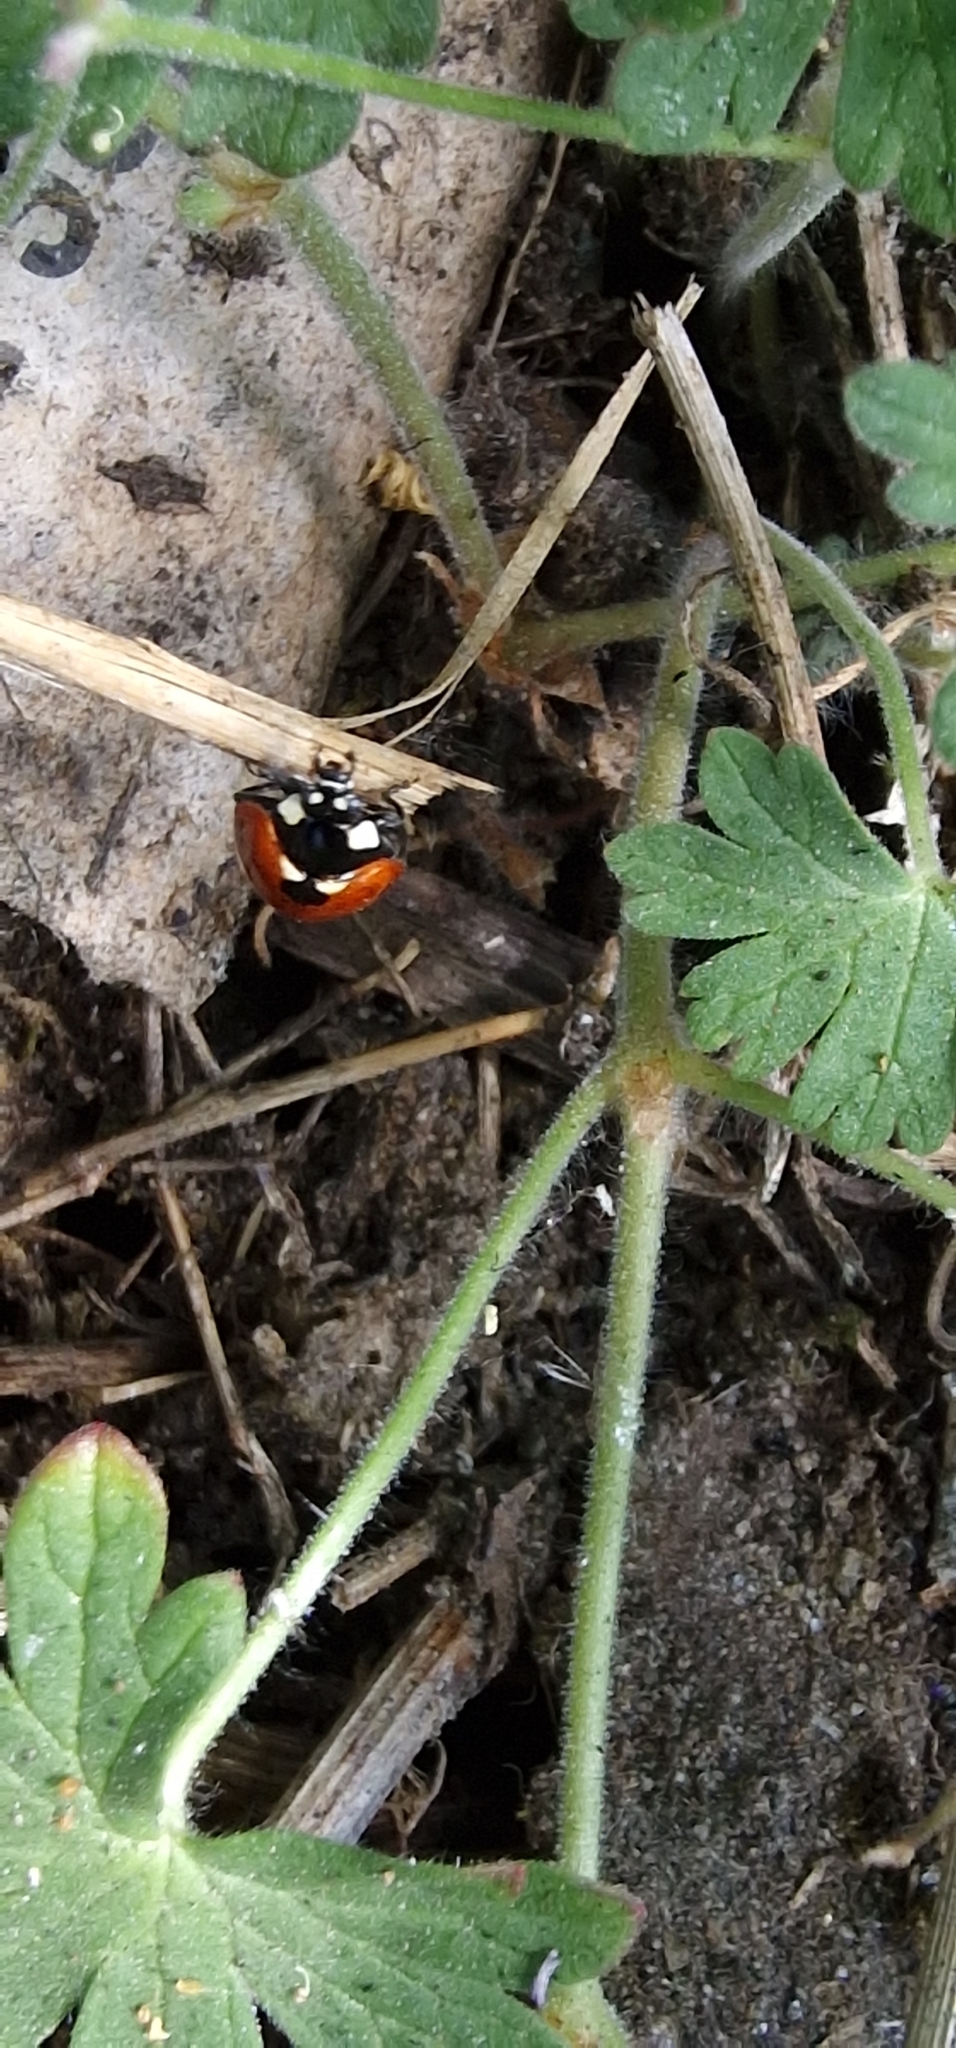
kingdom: Animalia
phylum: Arthropoda
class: Insecta
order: Coleoptera
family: Coccinellidae
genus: Coccinella
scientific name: Coccinella septempunctata
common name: Sevenspotted lady beetle
